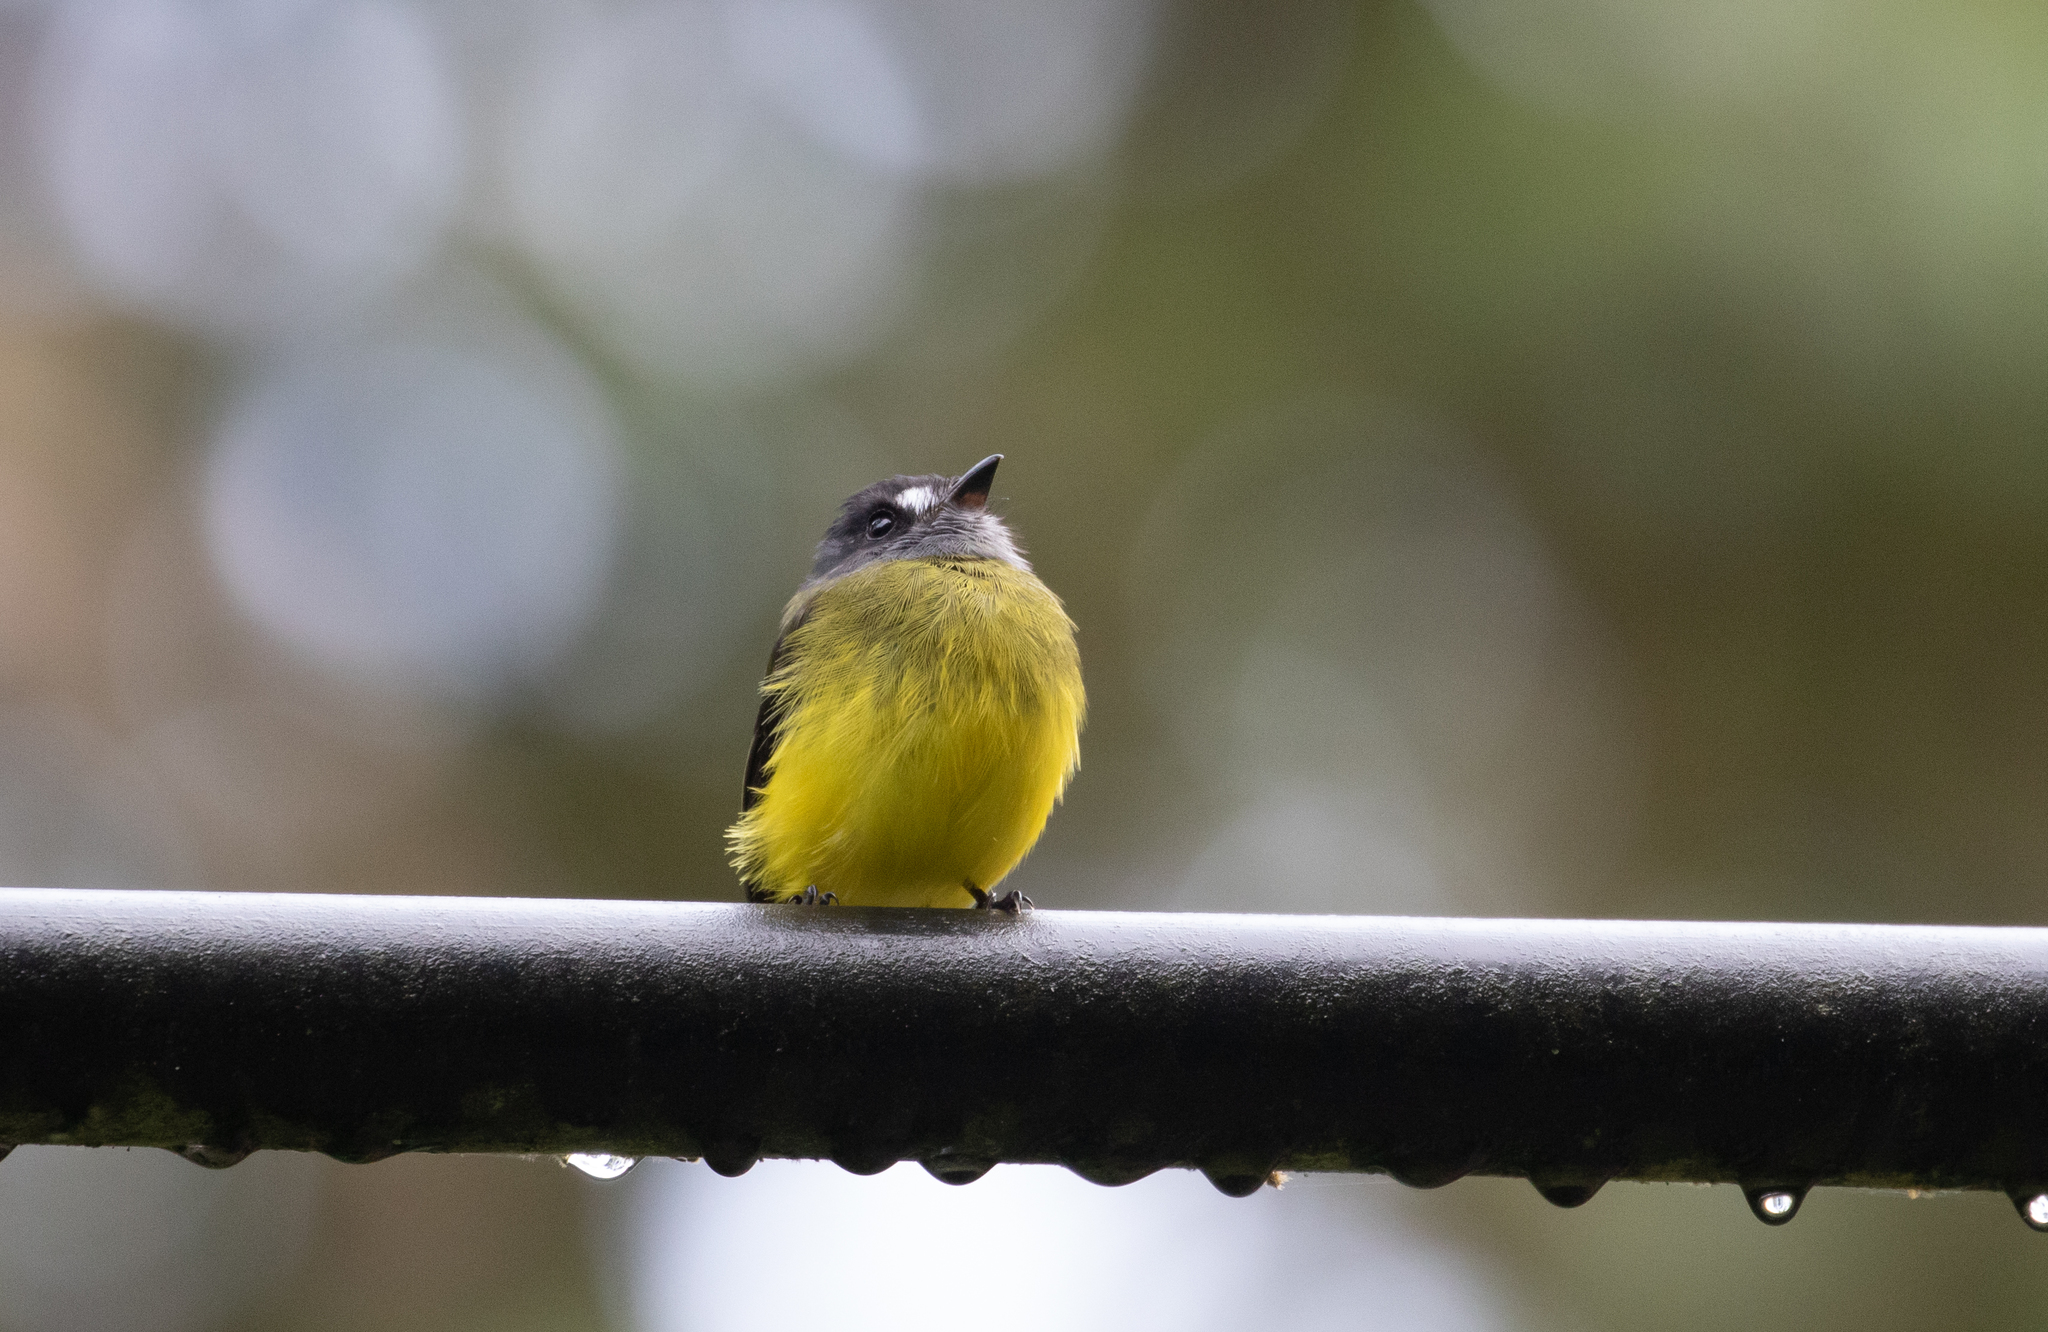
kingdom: Animalia
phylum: Chordata
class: Aves
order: Passeriformes
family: Tyrannidae
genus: Myiotriccus
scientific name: Myiotriccus ornatus
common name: Ornate flycatcher
